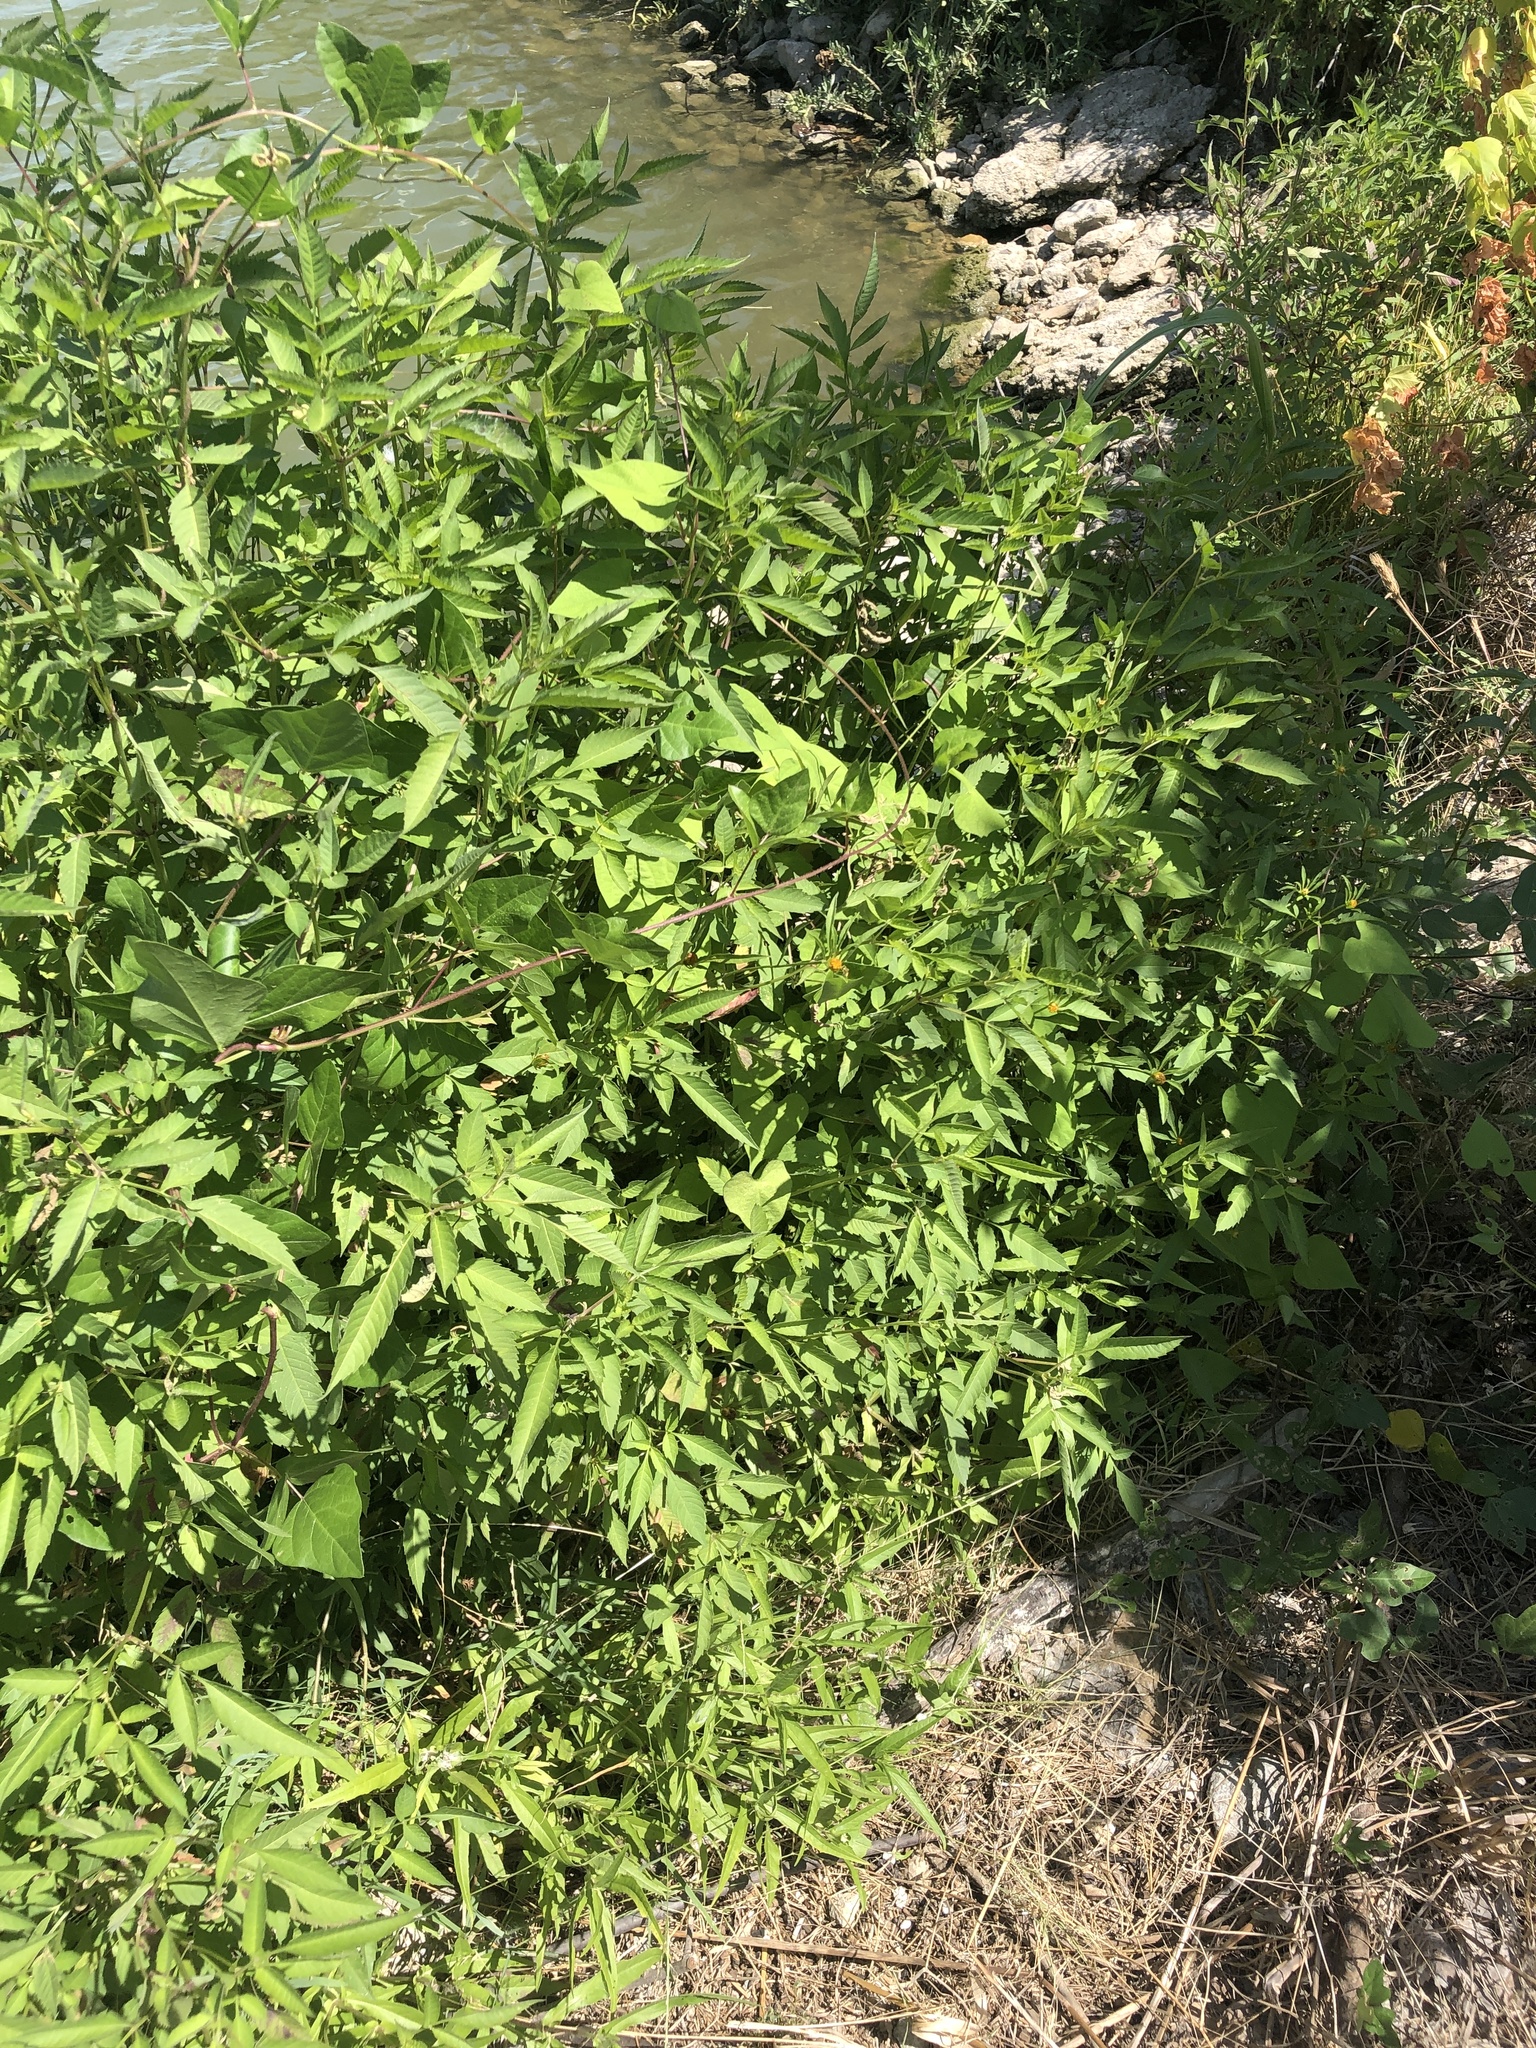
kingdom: Plantae
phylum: Tracheophyta
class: Magnoliopsida
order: Asterales
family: Asteraceae
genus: Bidens
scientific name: Bidens frondosa
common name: Beggarticks
